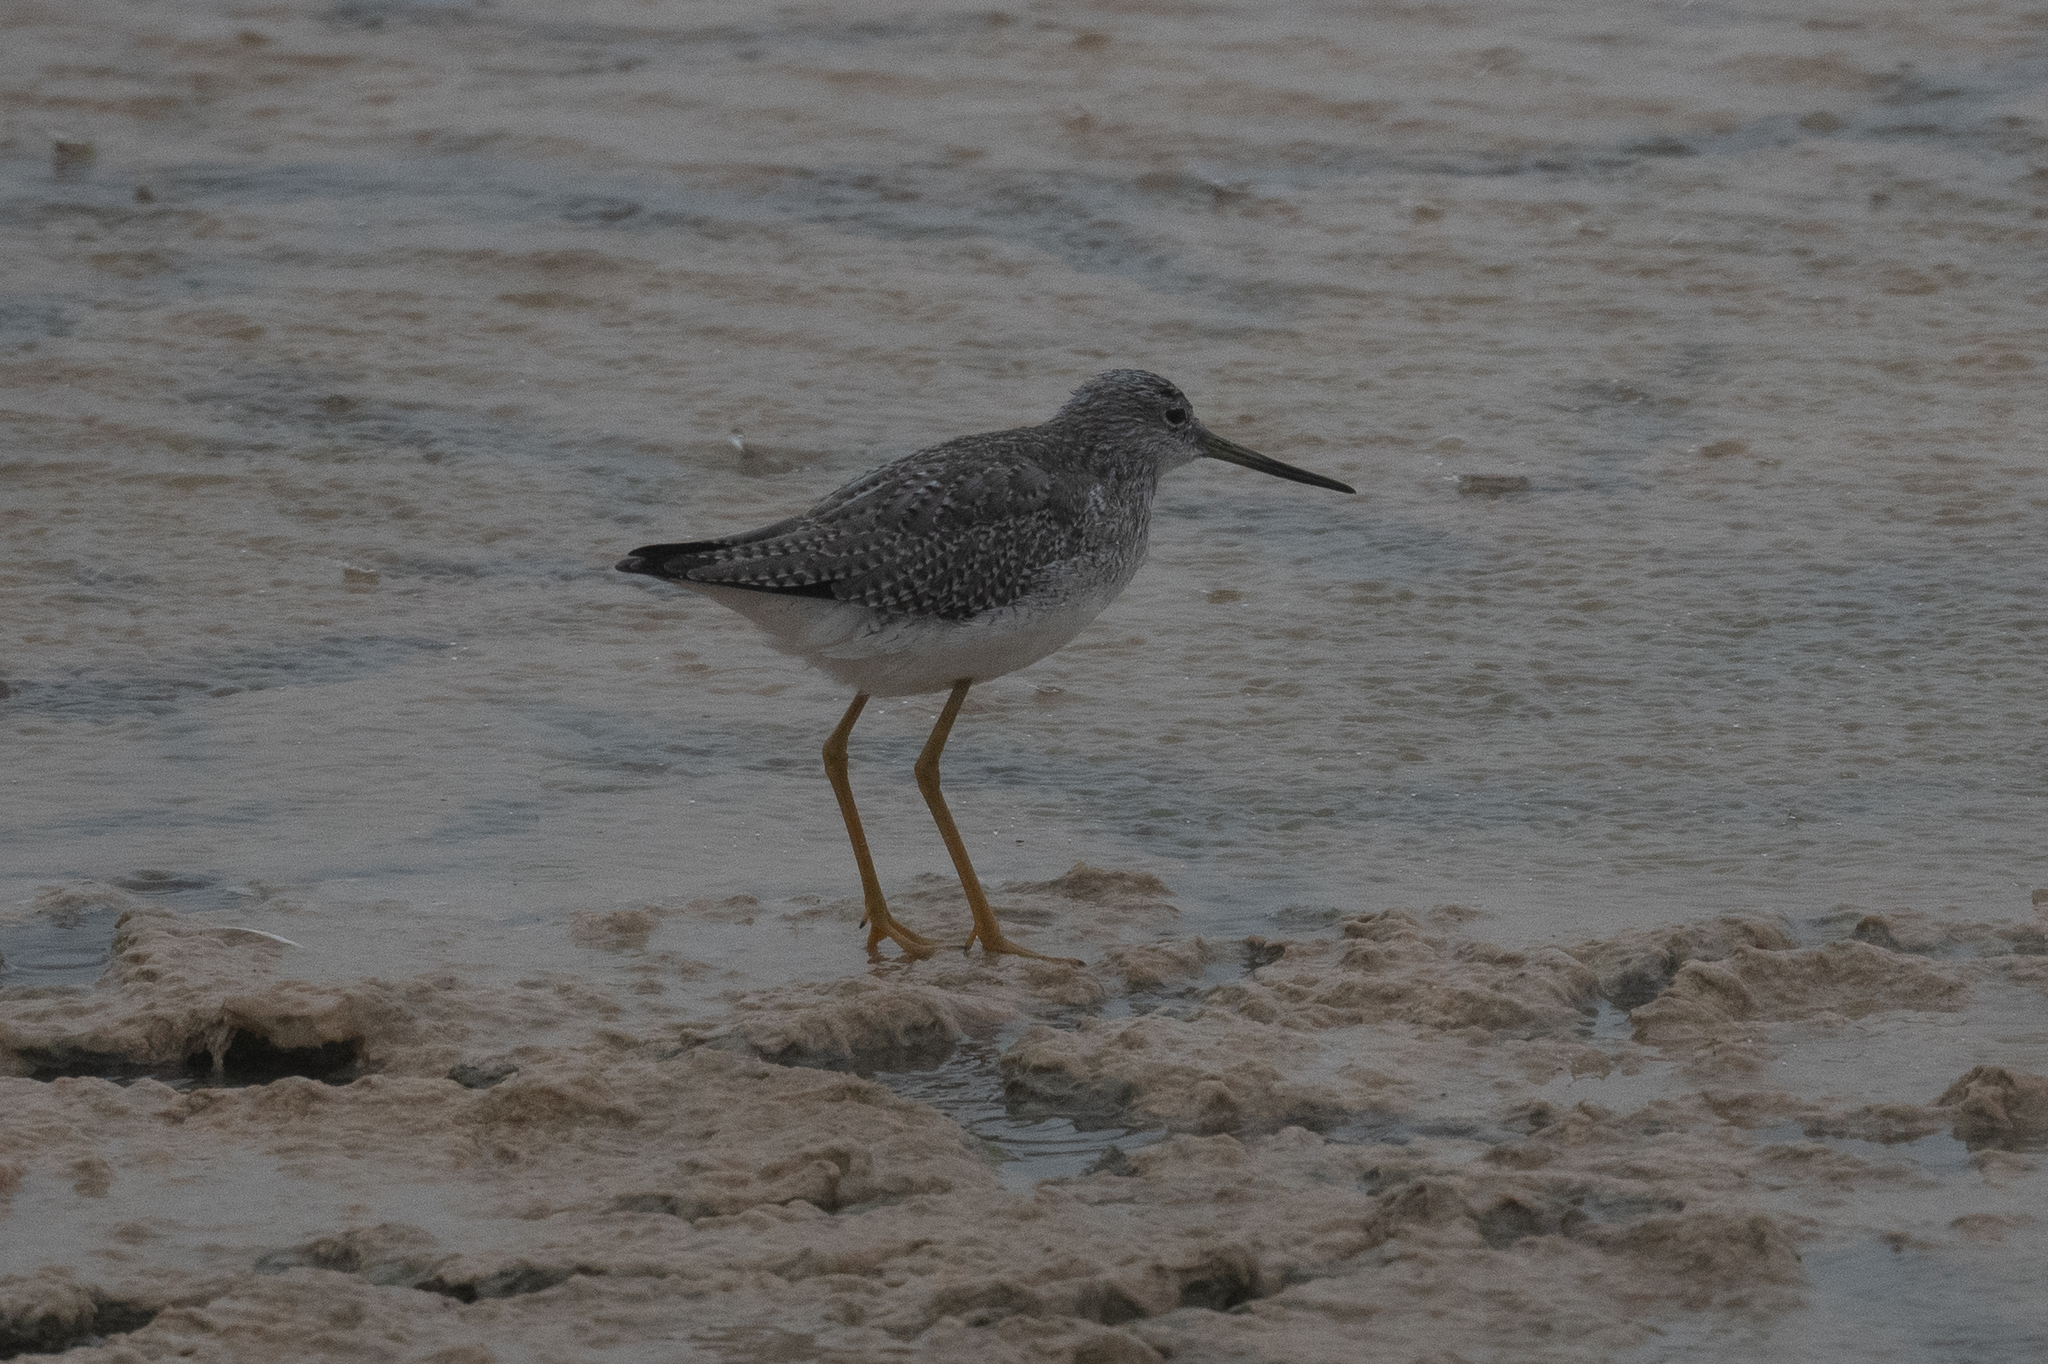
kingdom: Animalia
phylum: Chordata
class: Aves
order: Charadriiformes
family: Scolopacidae
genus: Tringa
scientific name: Tringa melanoleuca
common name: Greater yellowlegs
